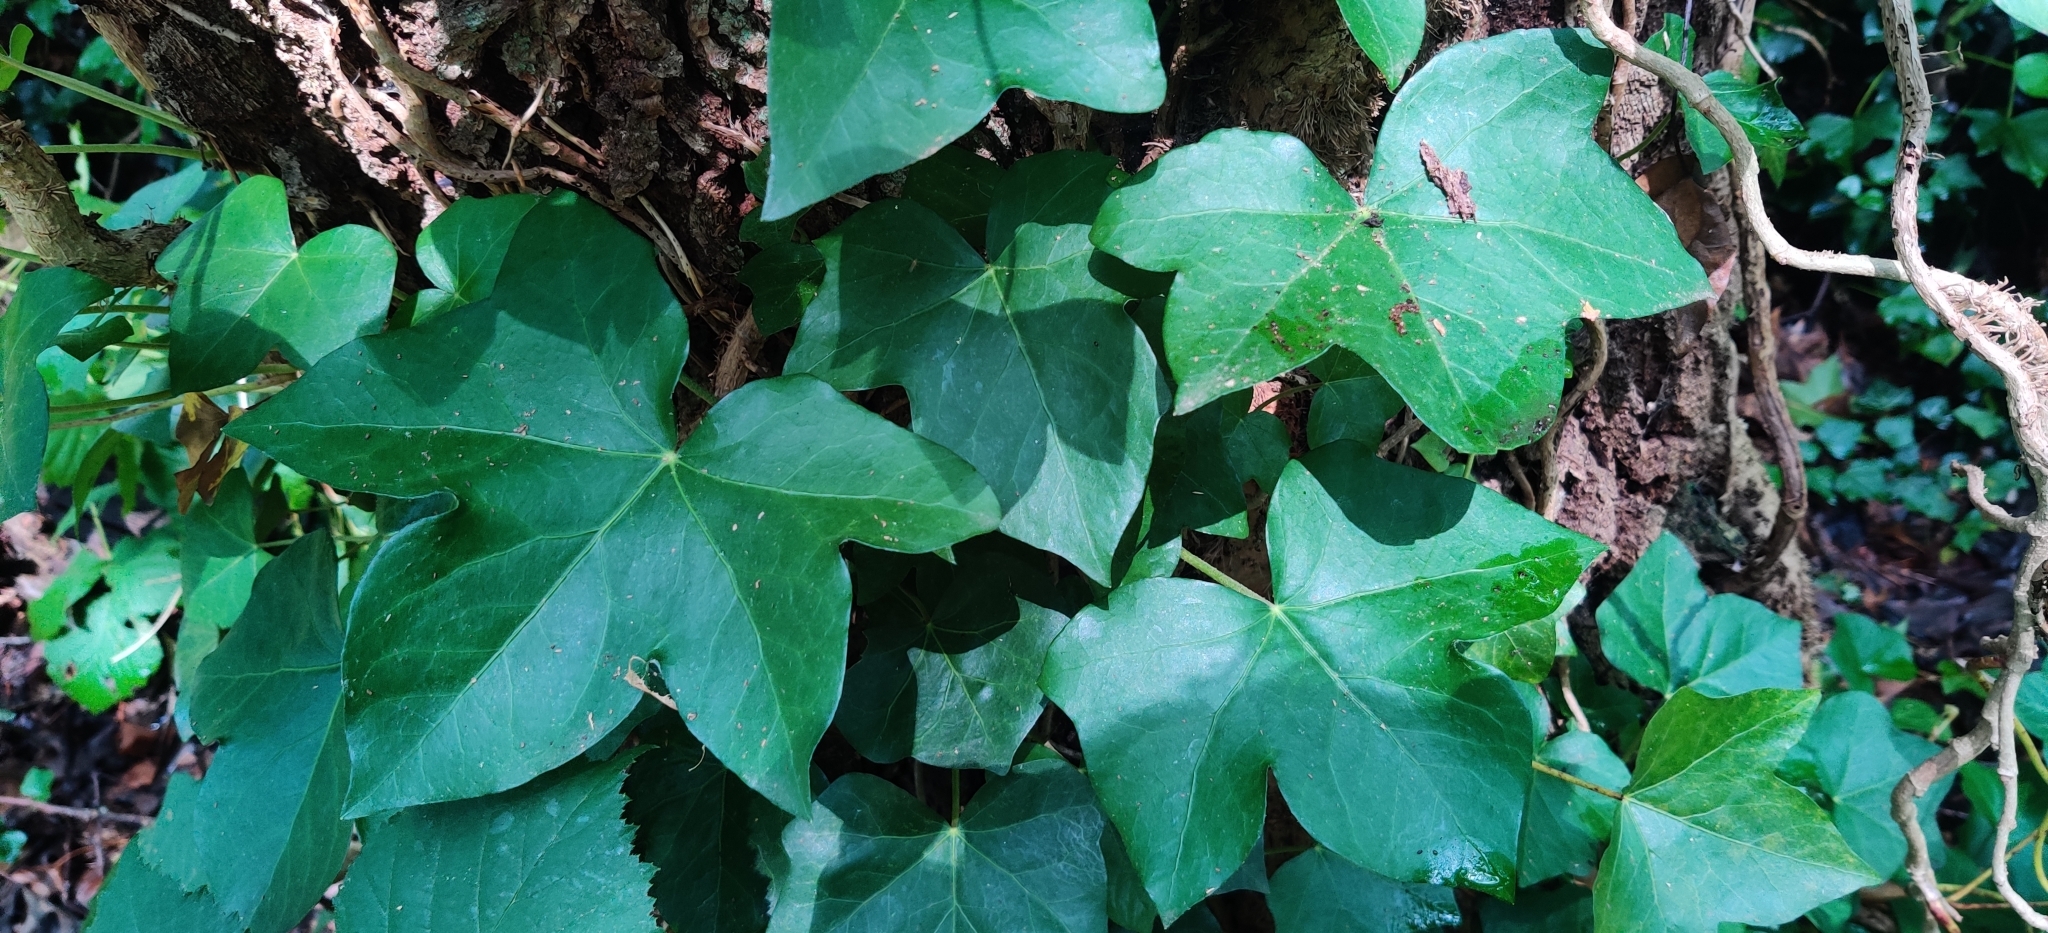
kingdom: Plantae
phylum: Tracheophyta
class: Magnoliopsida
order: Apiales
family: Araliaceae
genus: Hedera
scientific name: Hedera hibernica
